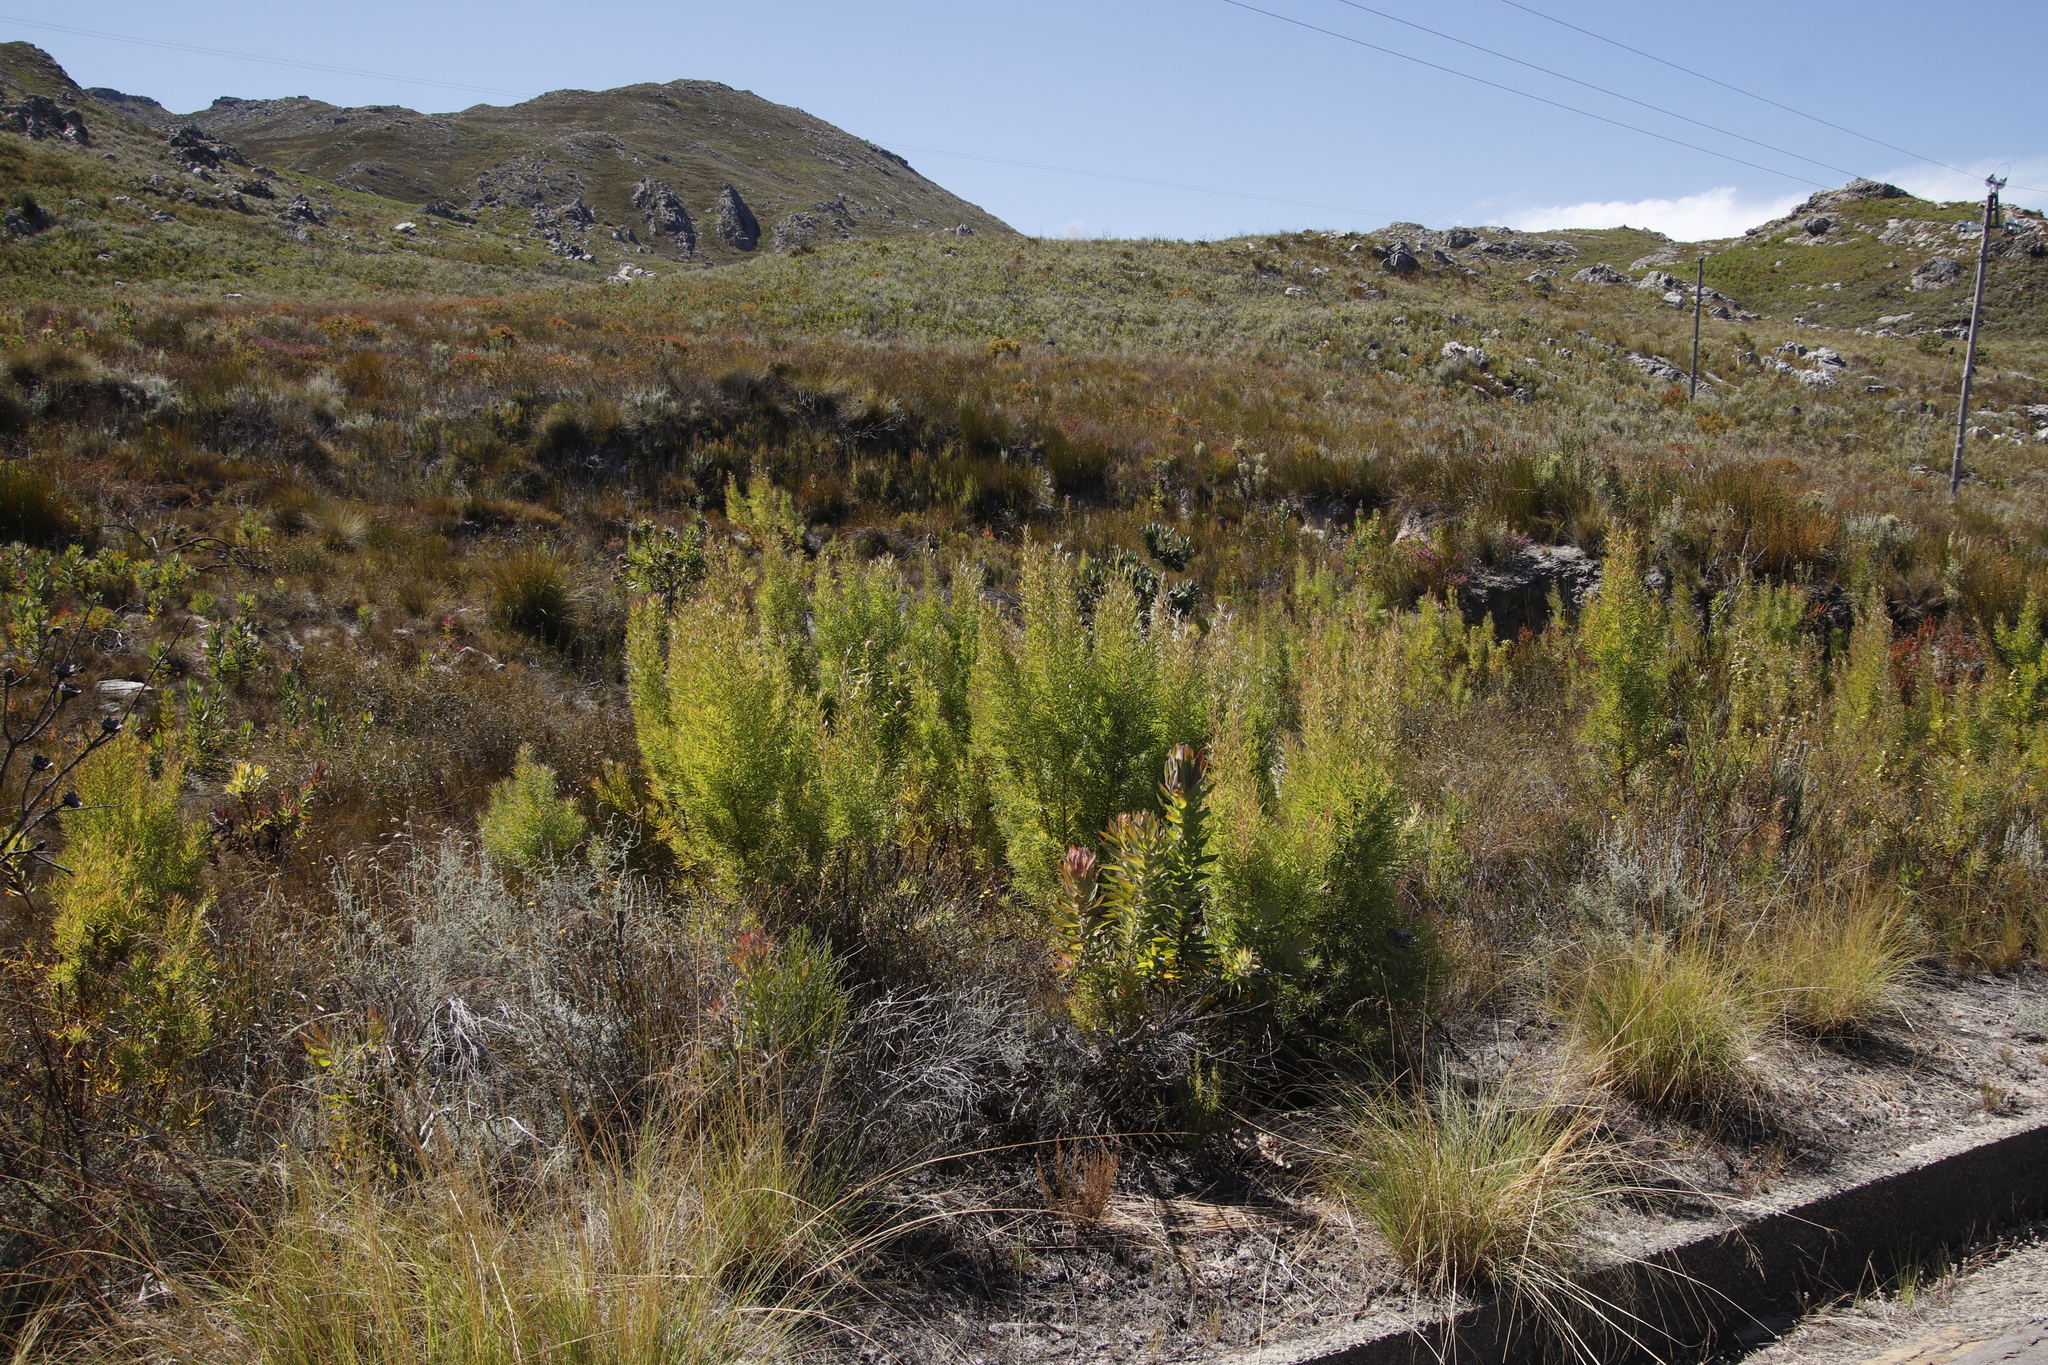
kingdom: Plantae
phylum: Tracheophyta
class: Magnoliopsida
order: Proteales
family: Proteaceae
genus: Leucadendron
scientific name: Leucadendron salicifolium
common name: Common stream conebush
